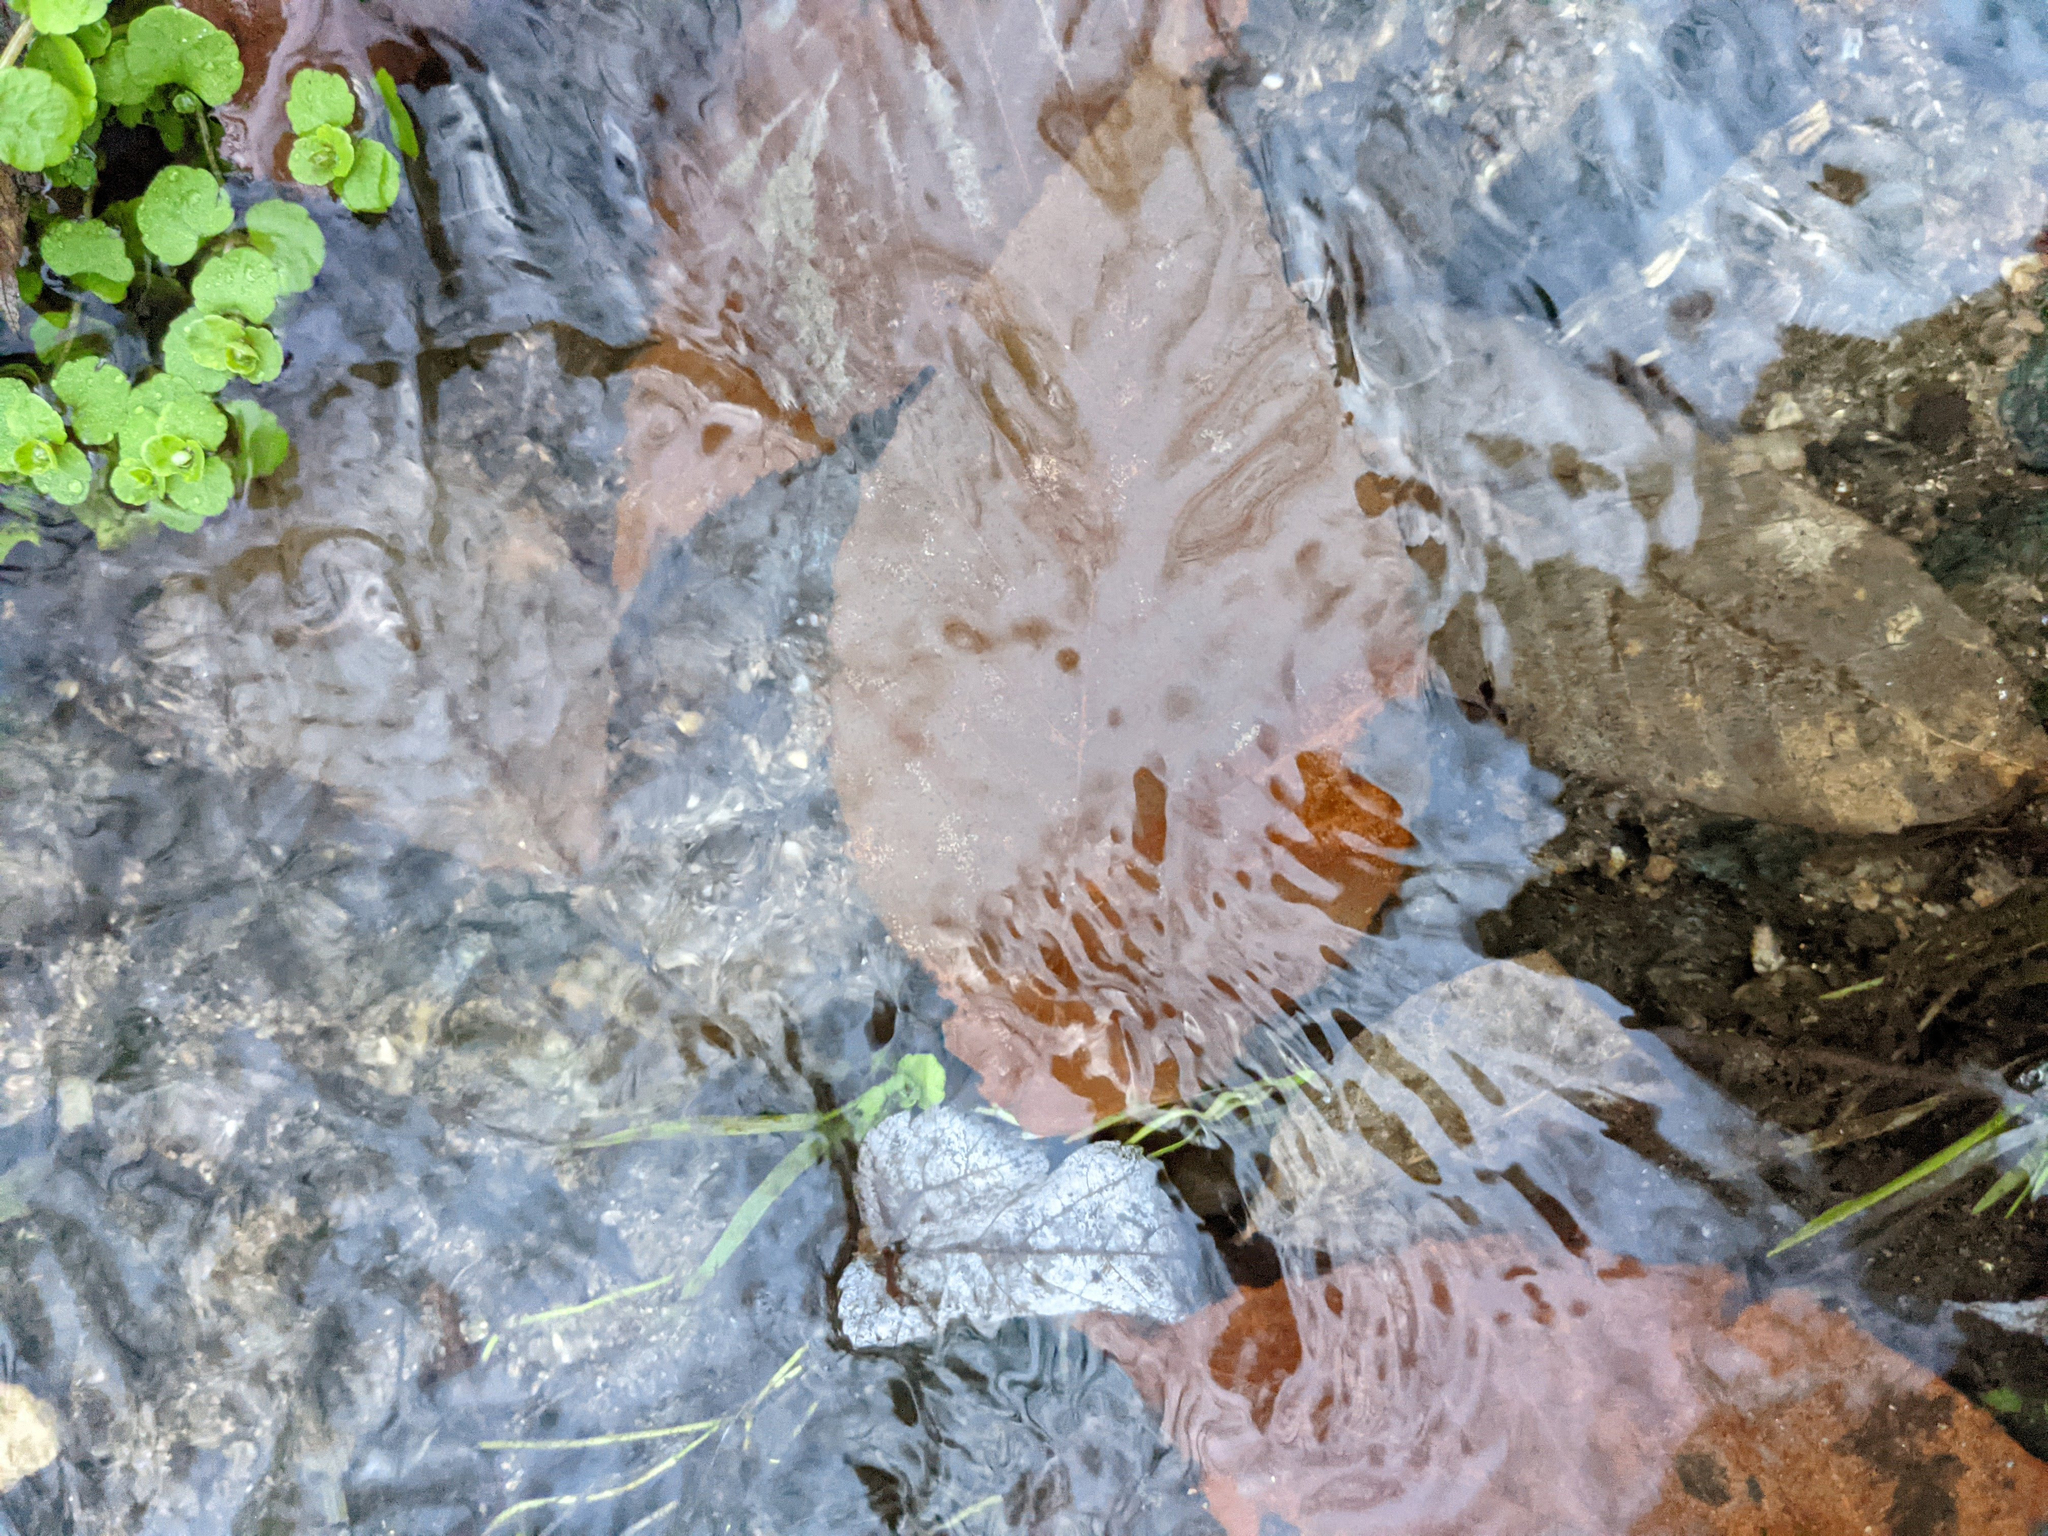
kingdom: Plantae
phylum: Tracheophyta
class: Magnoliopsida
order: Fagales
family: Fagaceae
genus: Fagus
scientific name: Fagus grandifolia
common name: American beech
